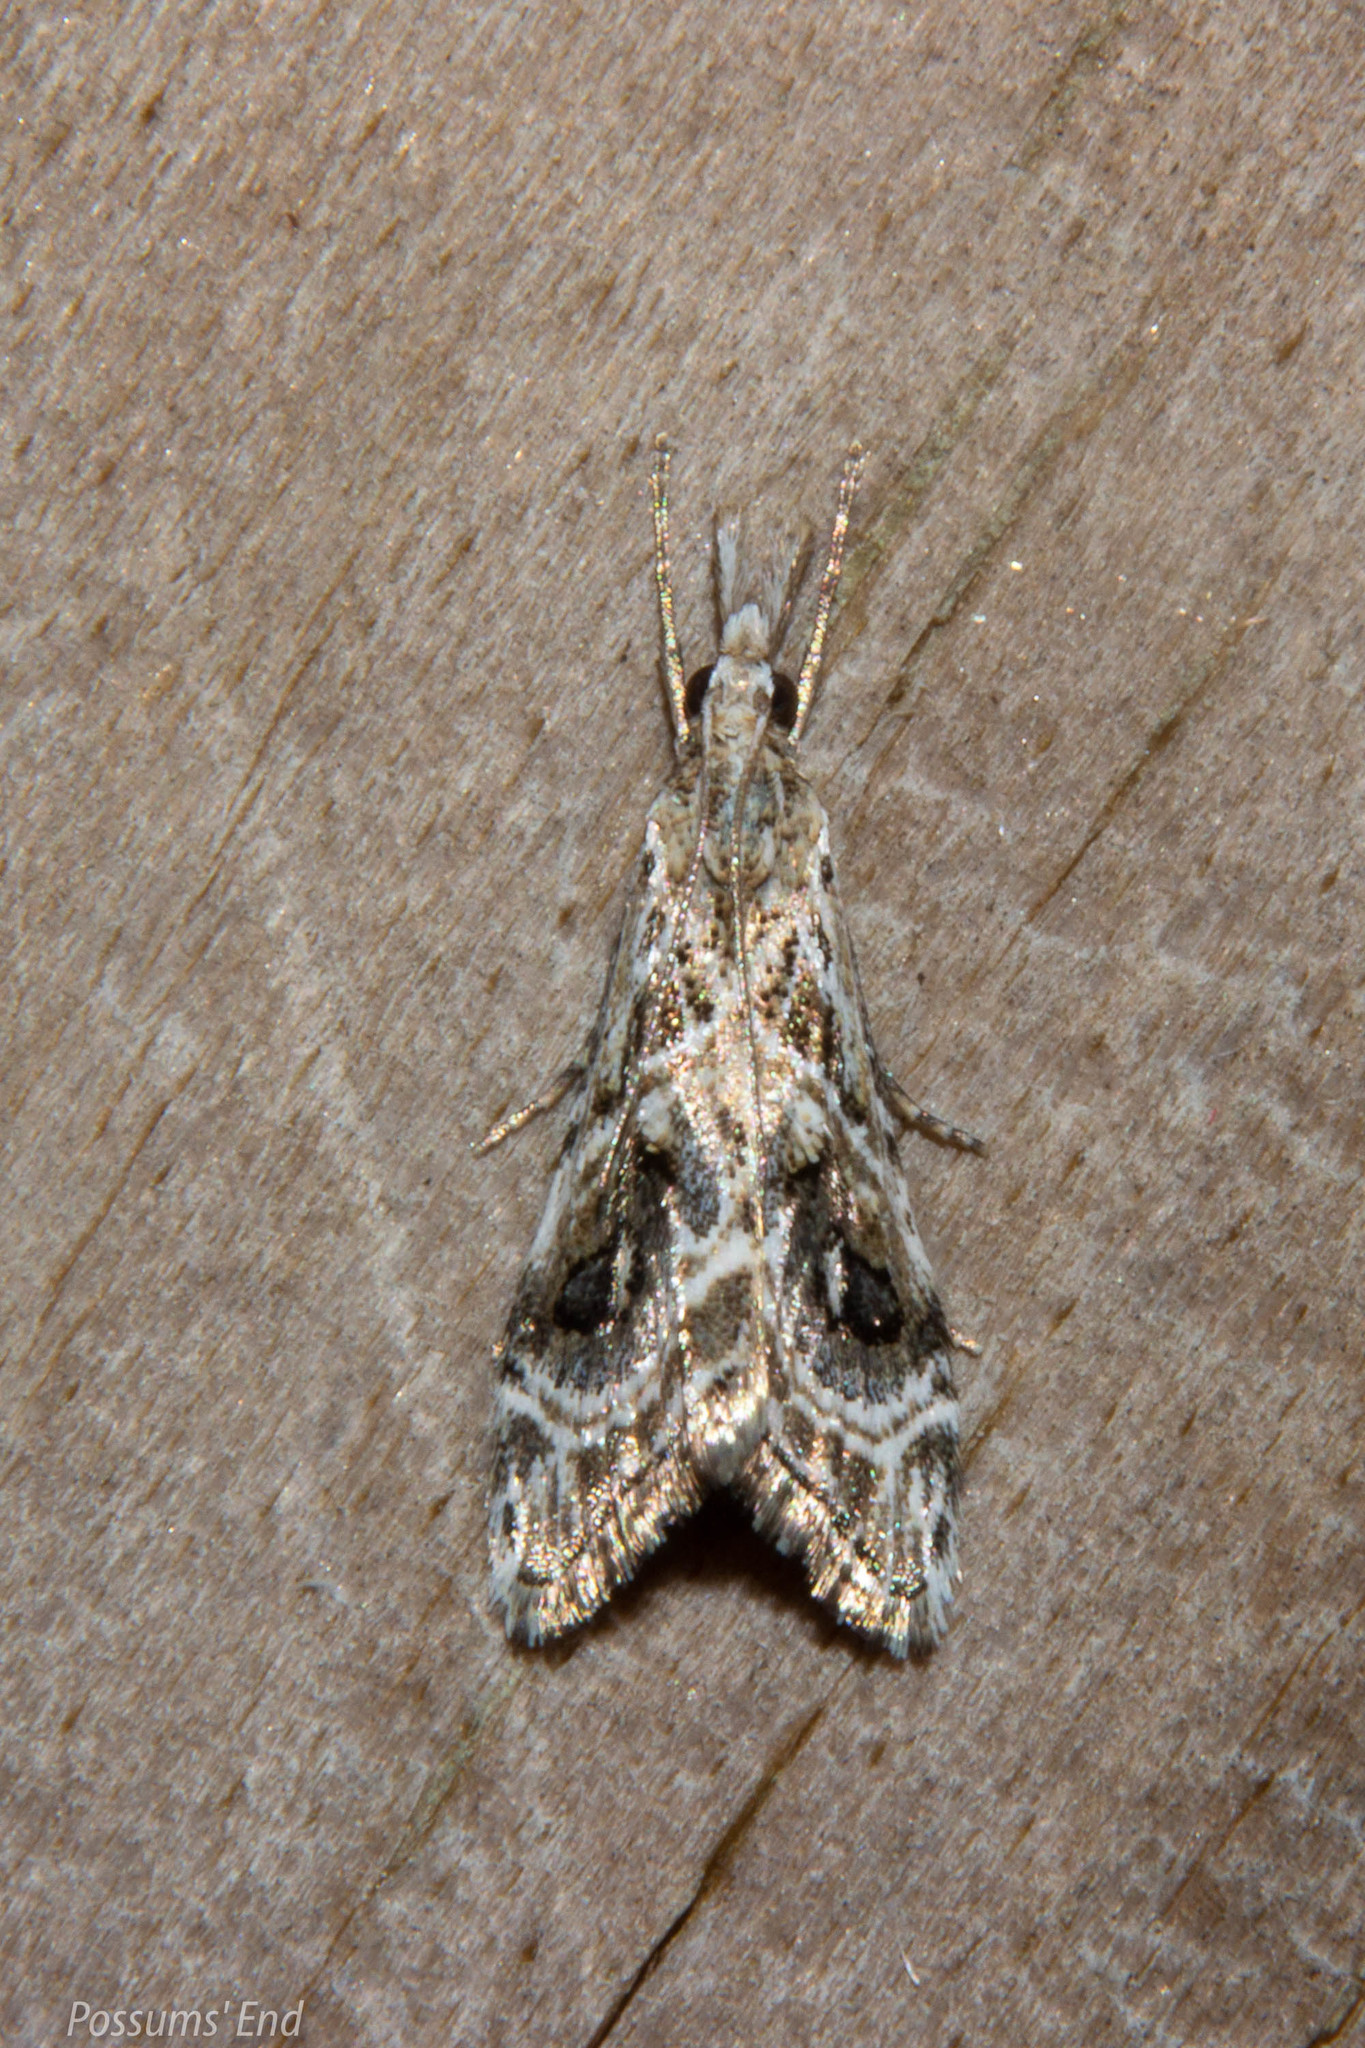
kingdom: Animalia
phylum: Arthropoda
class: Insecta
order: Lepidoptera
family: Crambidae
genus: Gadira
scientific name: Gadira acerella
